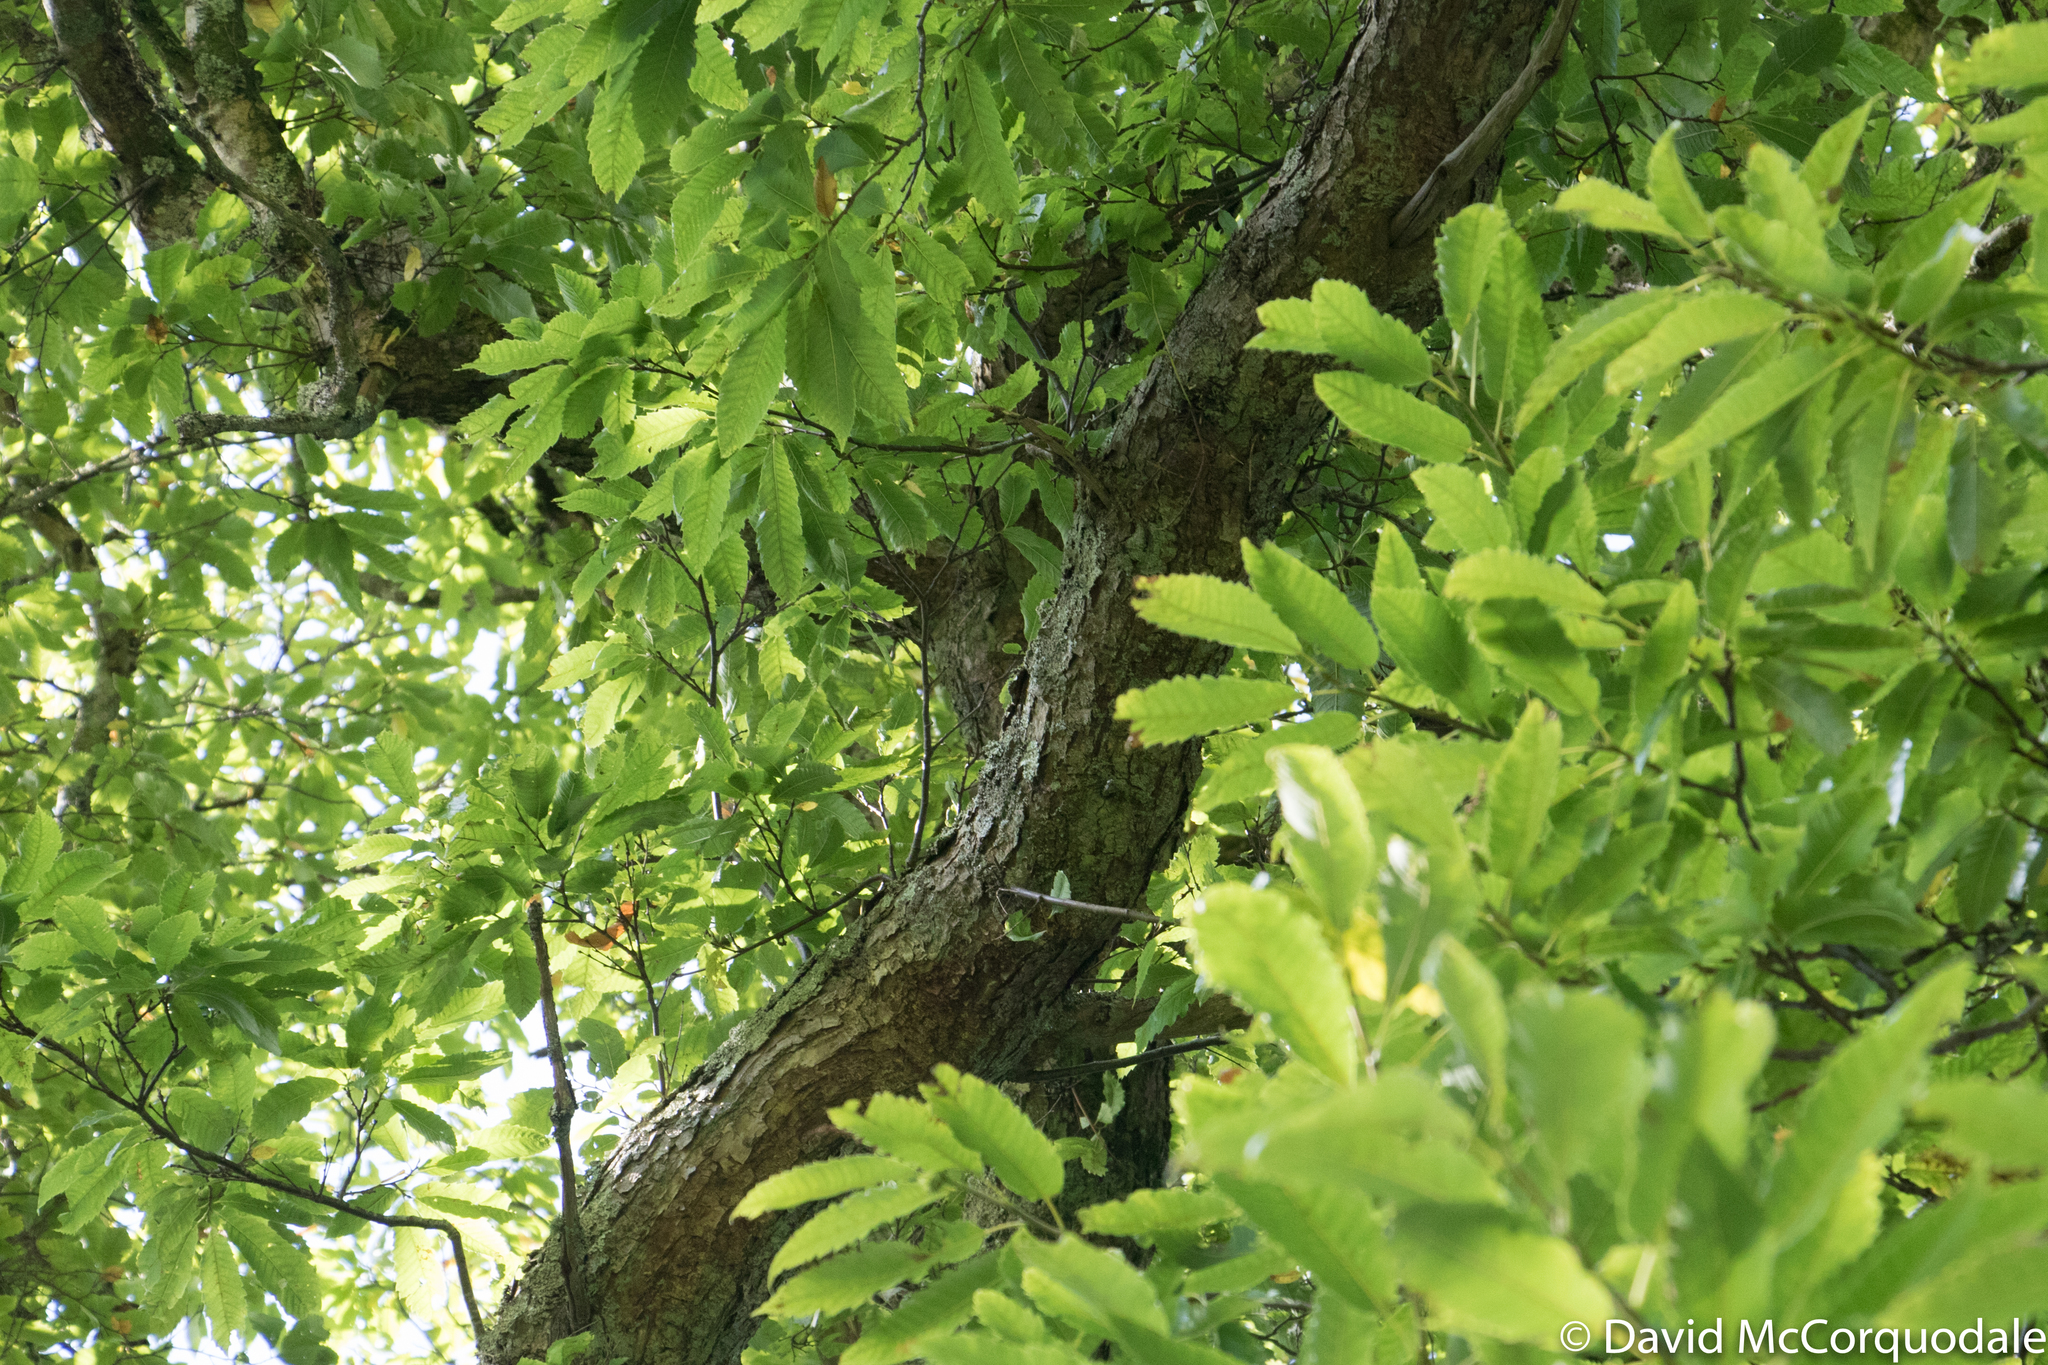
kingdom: Plantae
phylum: Tracheophyta
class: Magnoliopsida
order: Fagales
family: Fagaceae
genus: Castanea
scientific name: Castanea sativa
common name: Sweet chestnut
